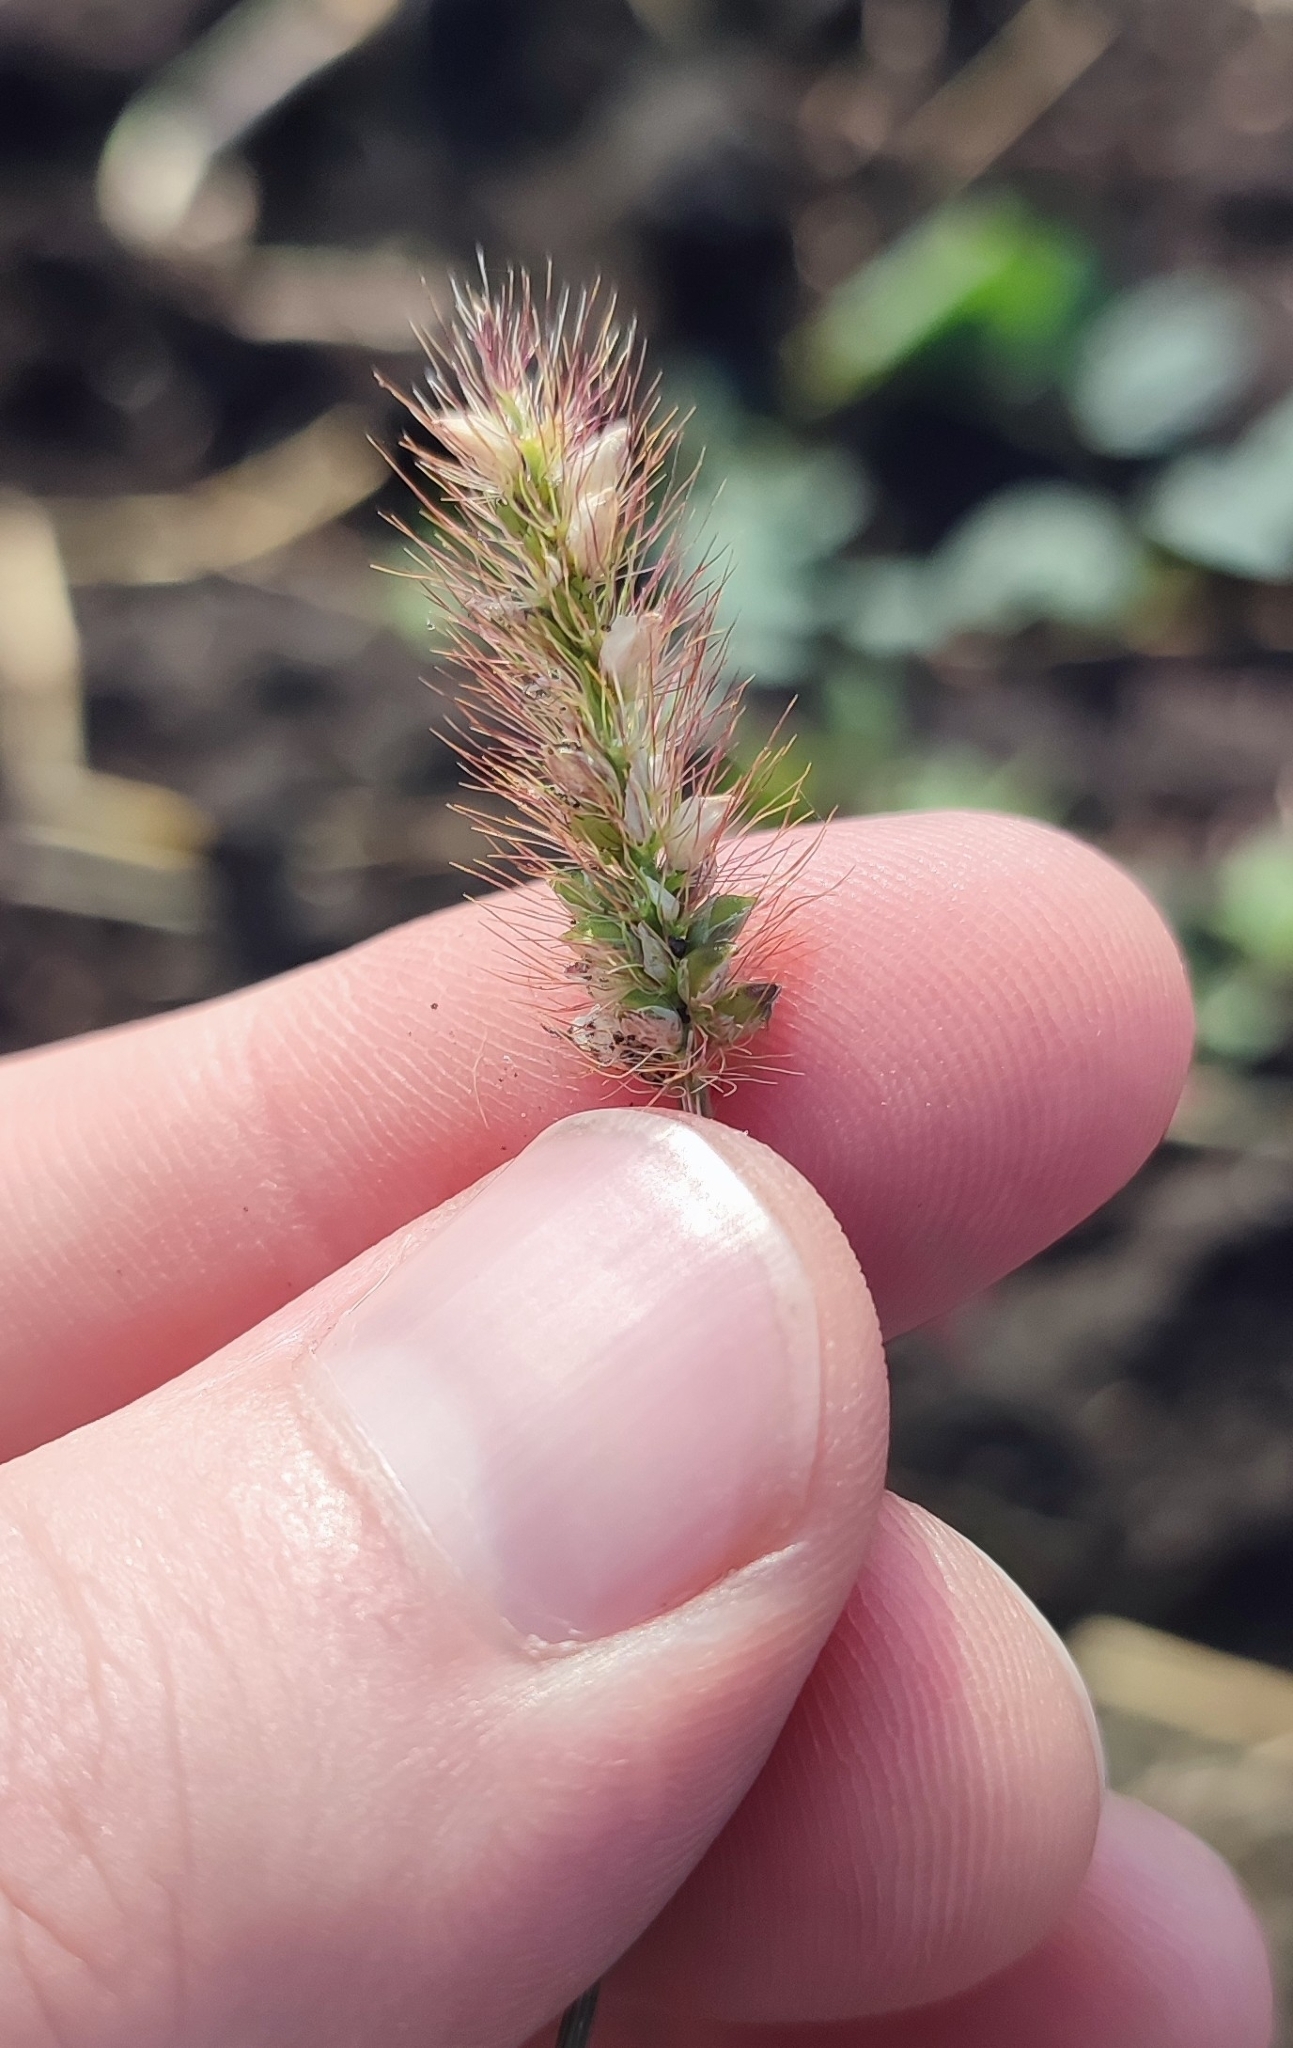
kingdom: Plantae
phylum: Tracheophyta
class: Liliopsida
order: Poales
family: Poaceae
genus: Setaria
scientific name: Setaria pumila
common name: Yellow bristle-grass
